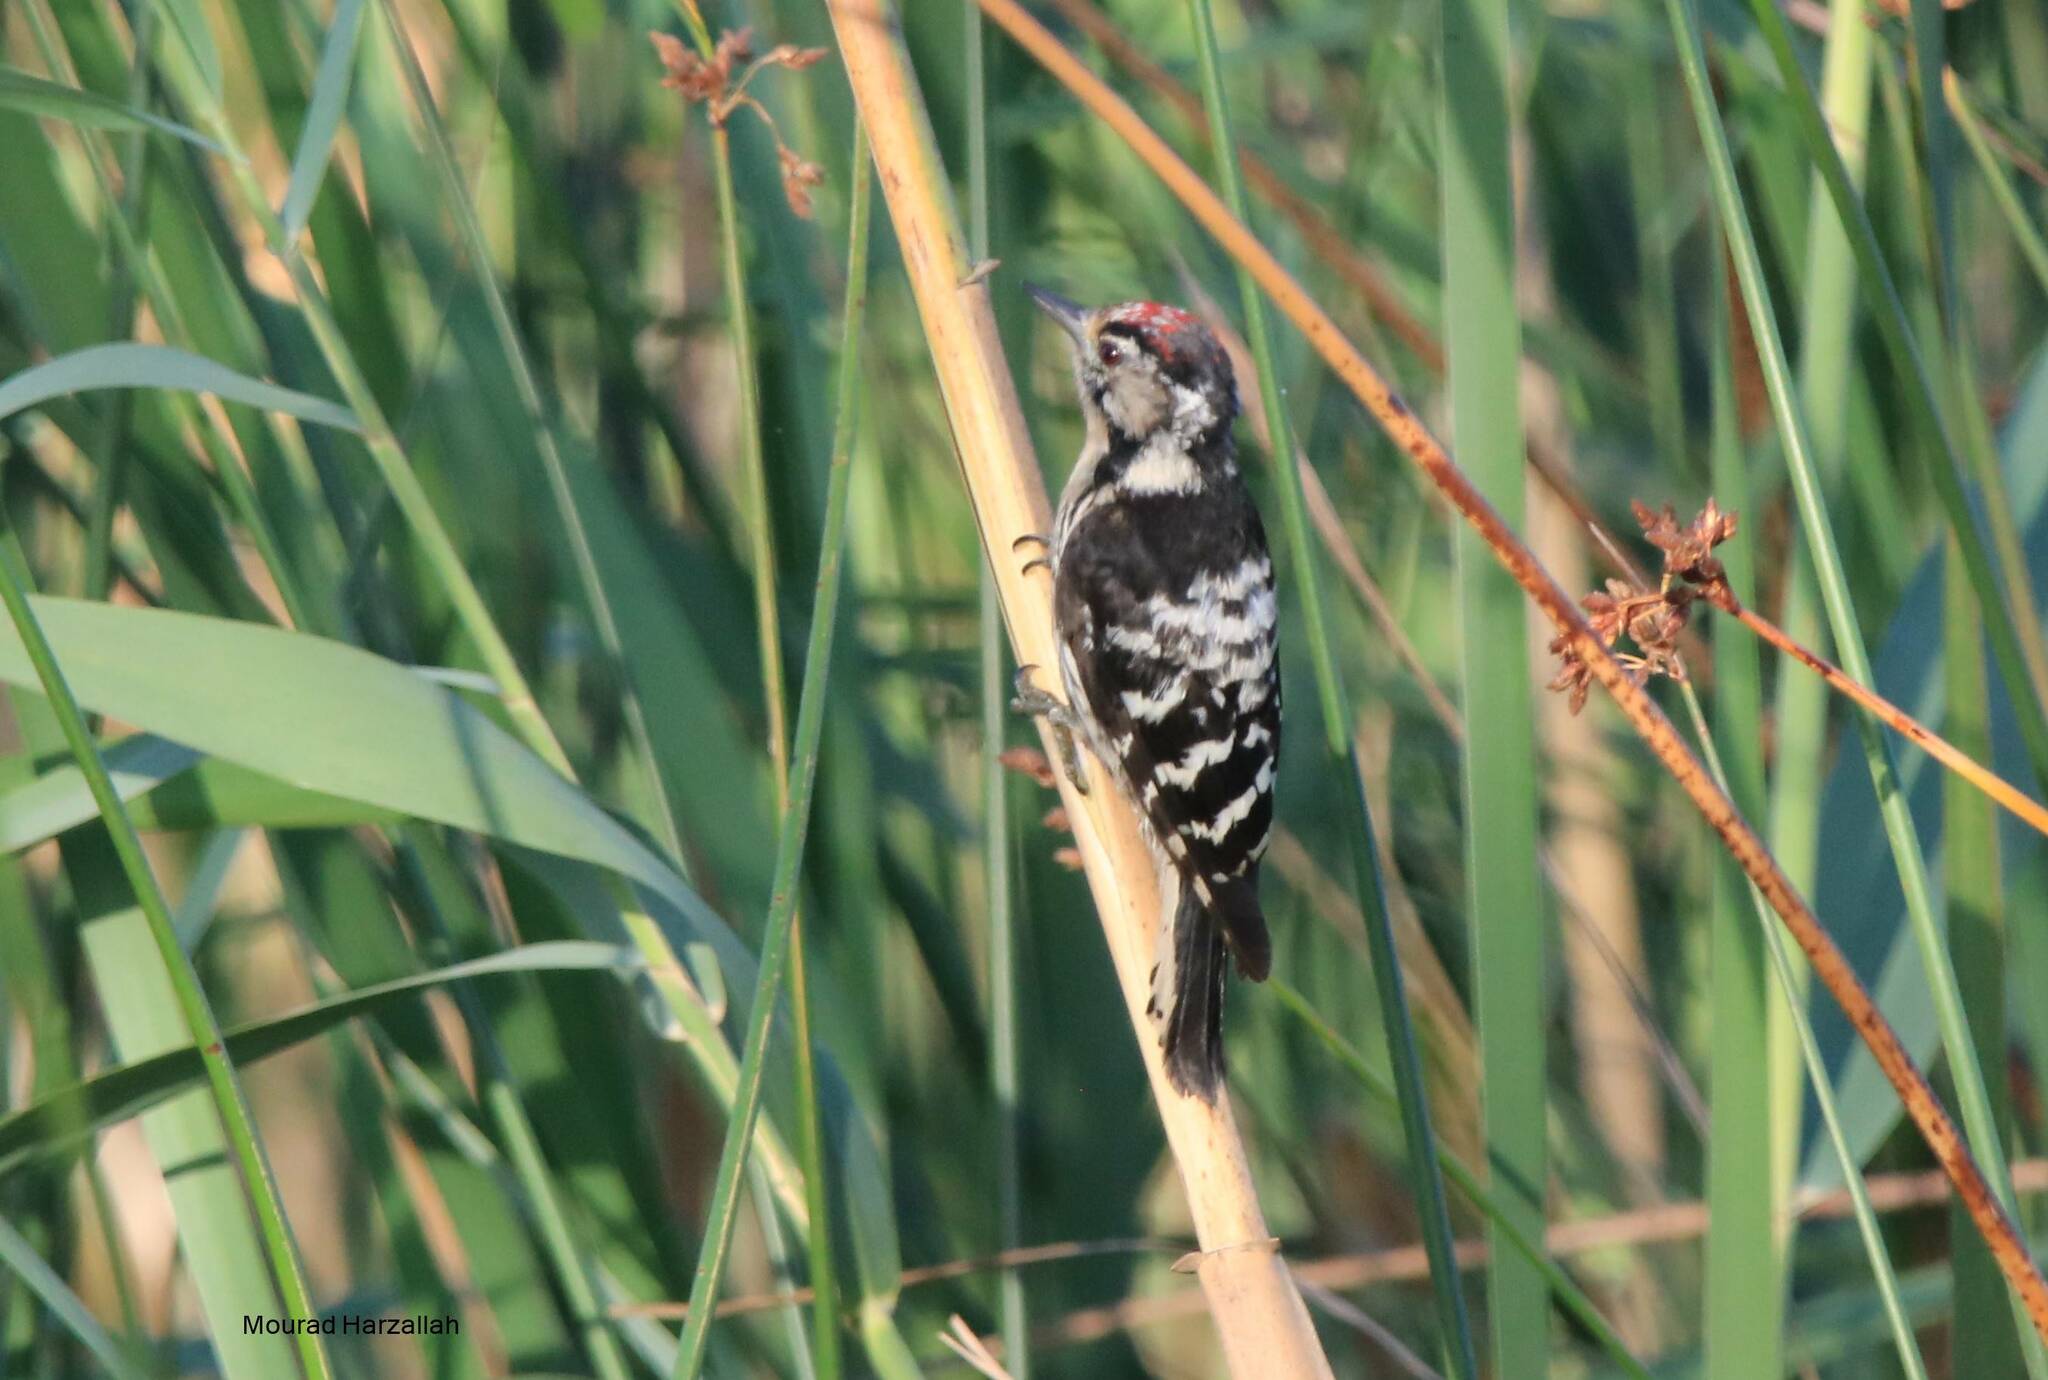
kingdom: Animalia
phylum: Chordata
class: Aves
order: Piciformes
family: Picidae
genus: Dryobates
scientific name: Dryobates minor
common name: Lesser spotted woodpecker
